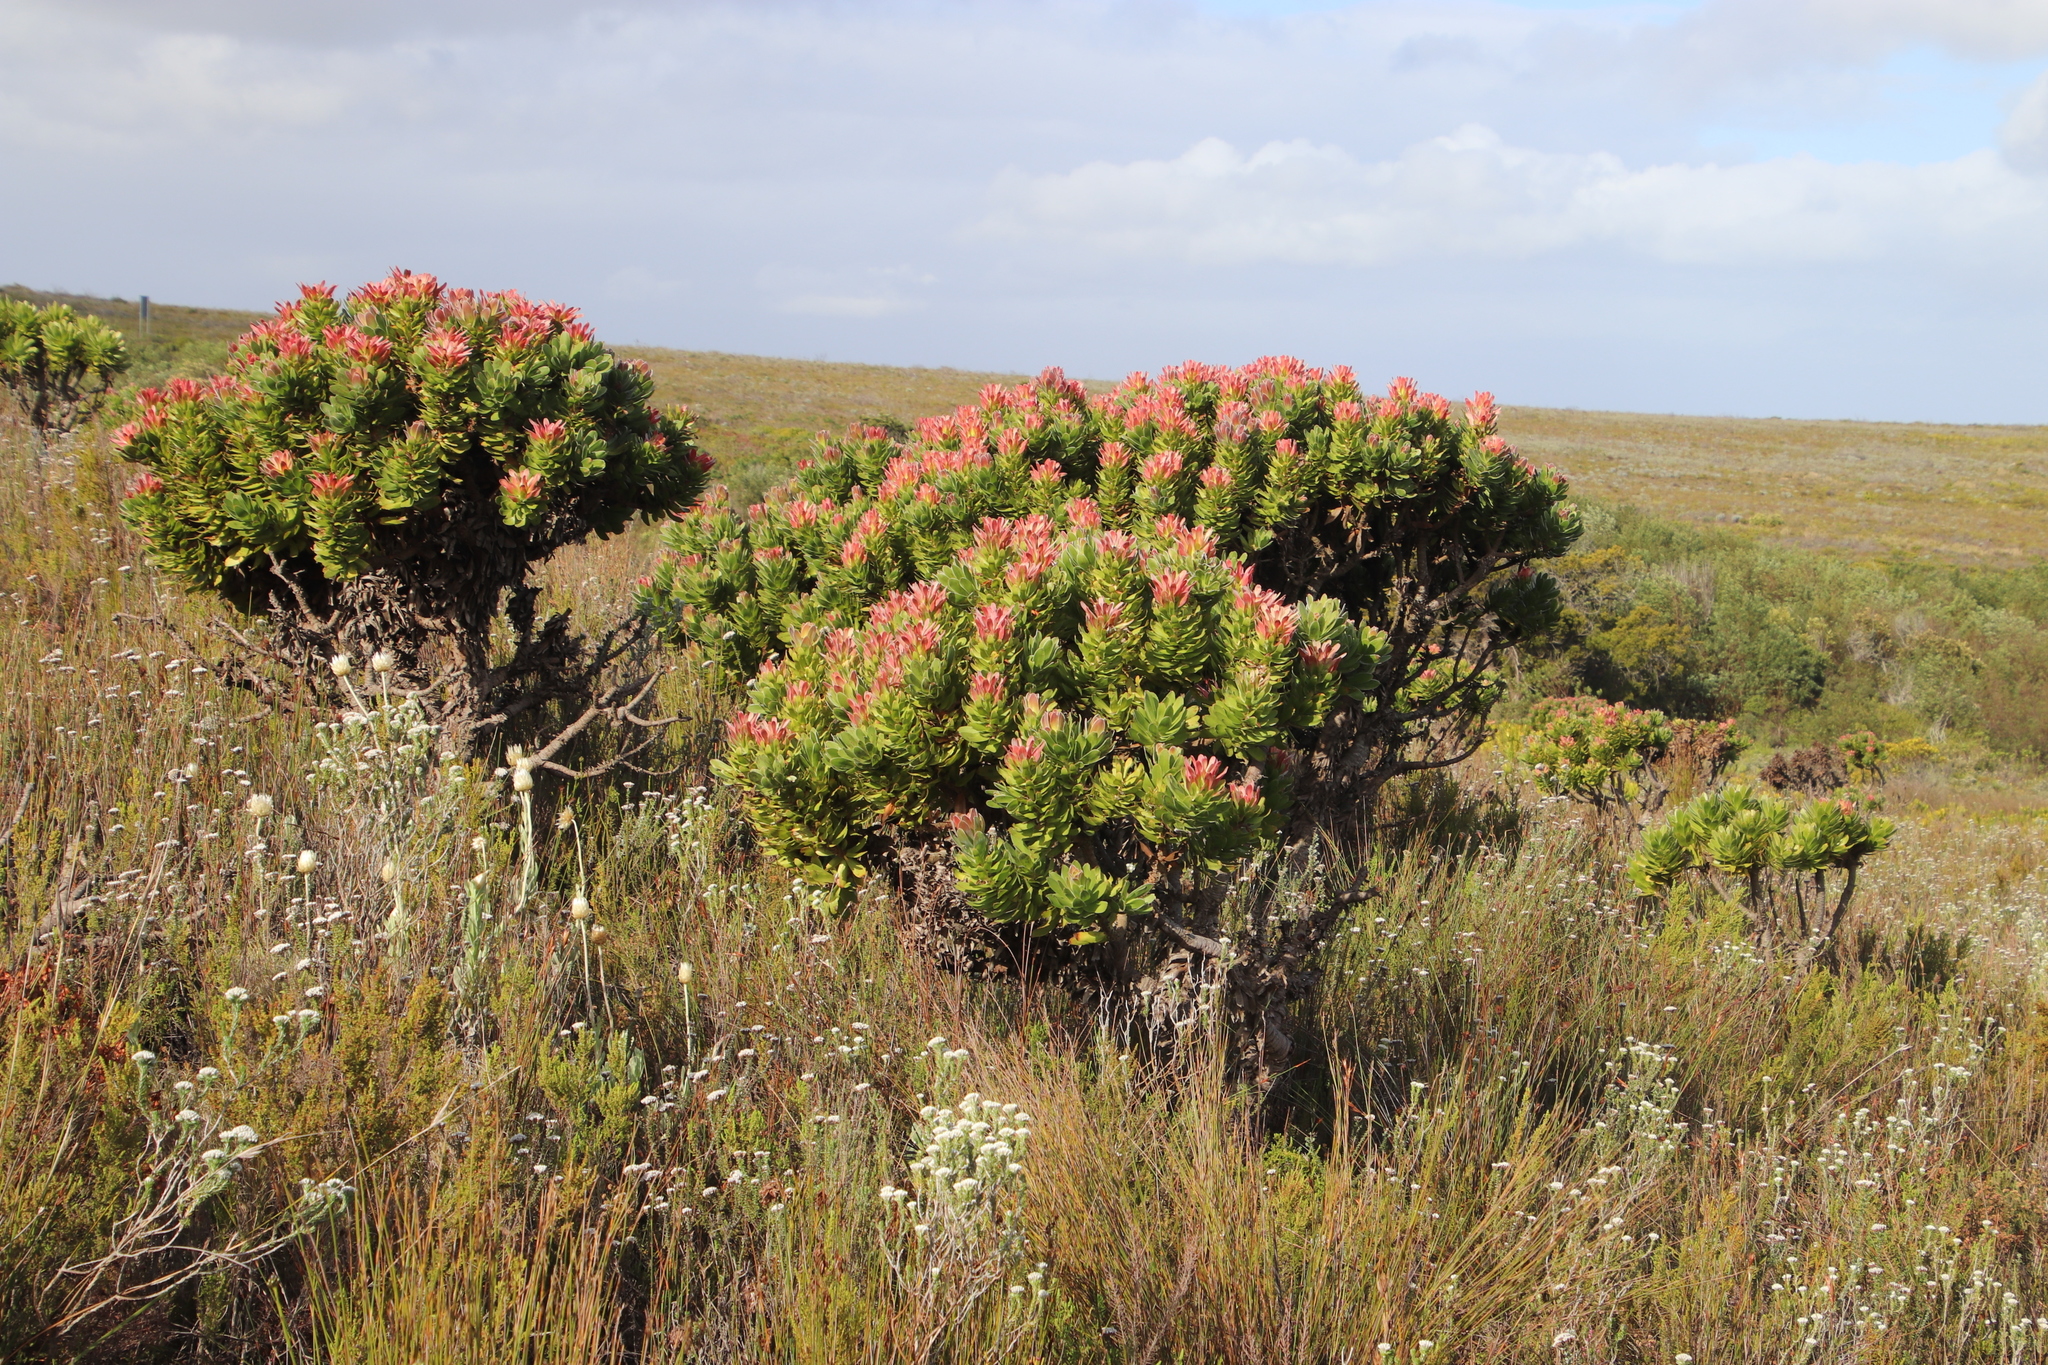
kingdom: Plantae
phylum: Tracheophyta
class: Magnoliopsida
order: Proteales
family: Proteaceae
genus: Mimetes
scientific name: Mimetes fimbriifolius
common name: Fringed bottlebrush
